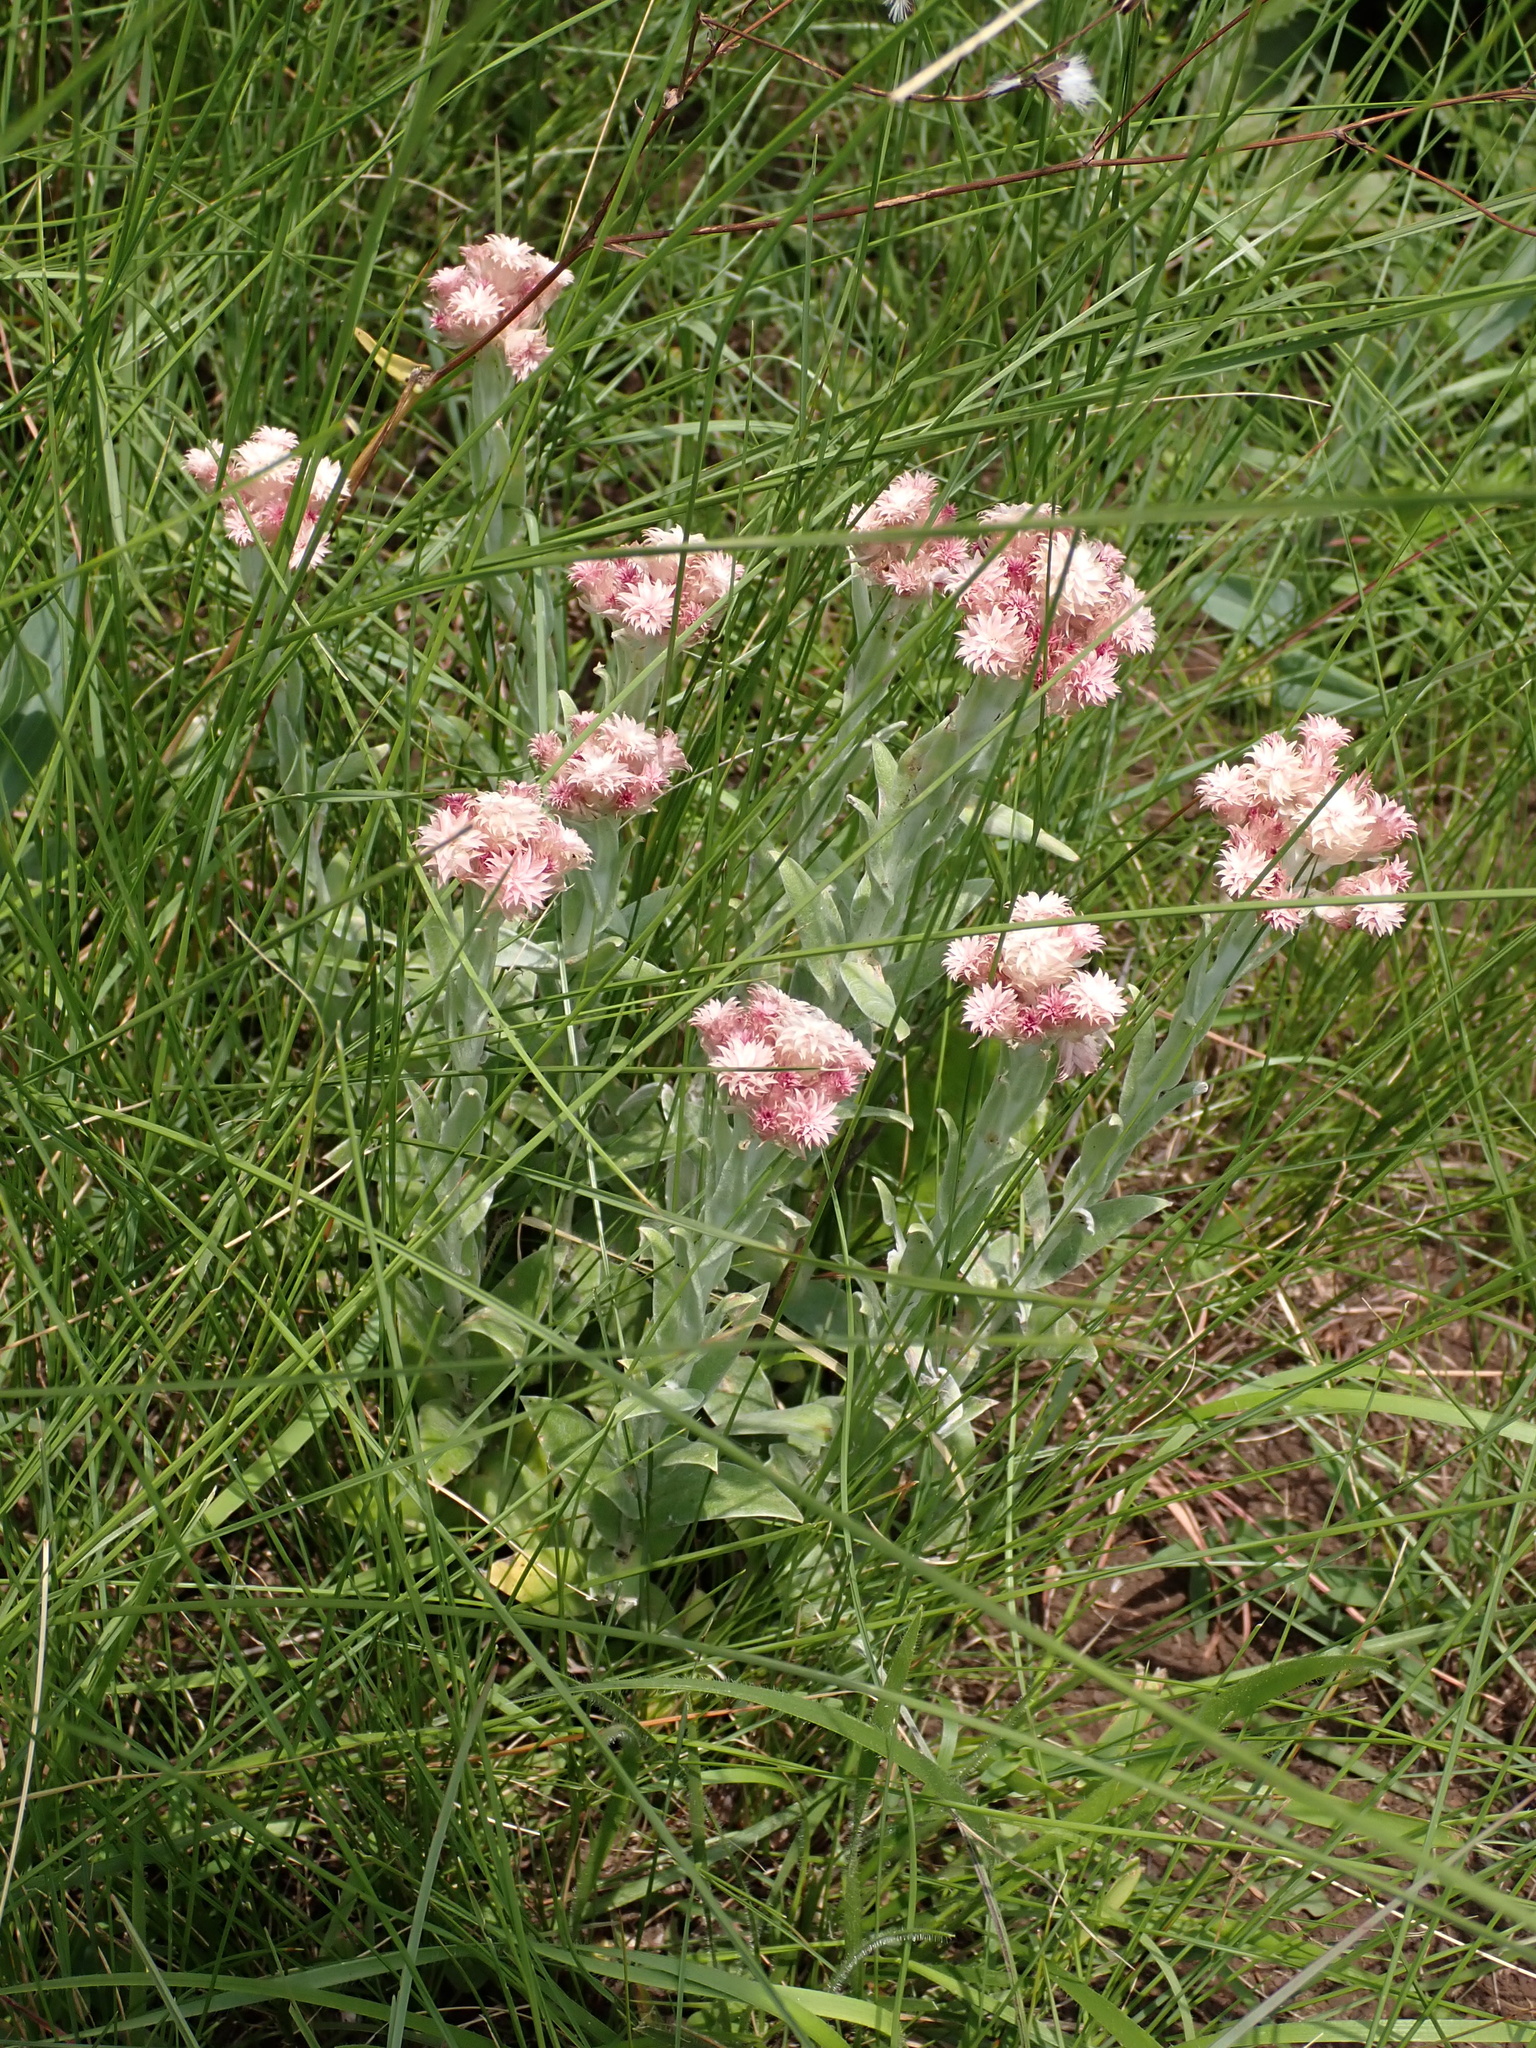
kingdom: Plantae
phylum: Tracheophyta
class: Magnoliopsida
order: Asterales
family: Asteraceae
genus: Helichrysum
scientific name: Helichrysum appendiculatum
